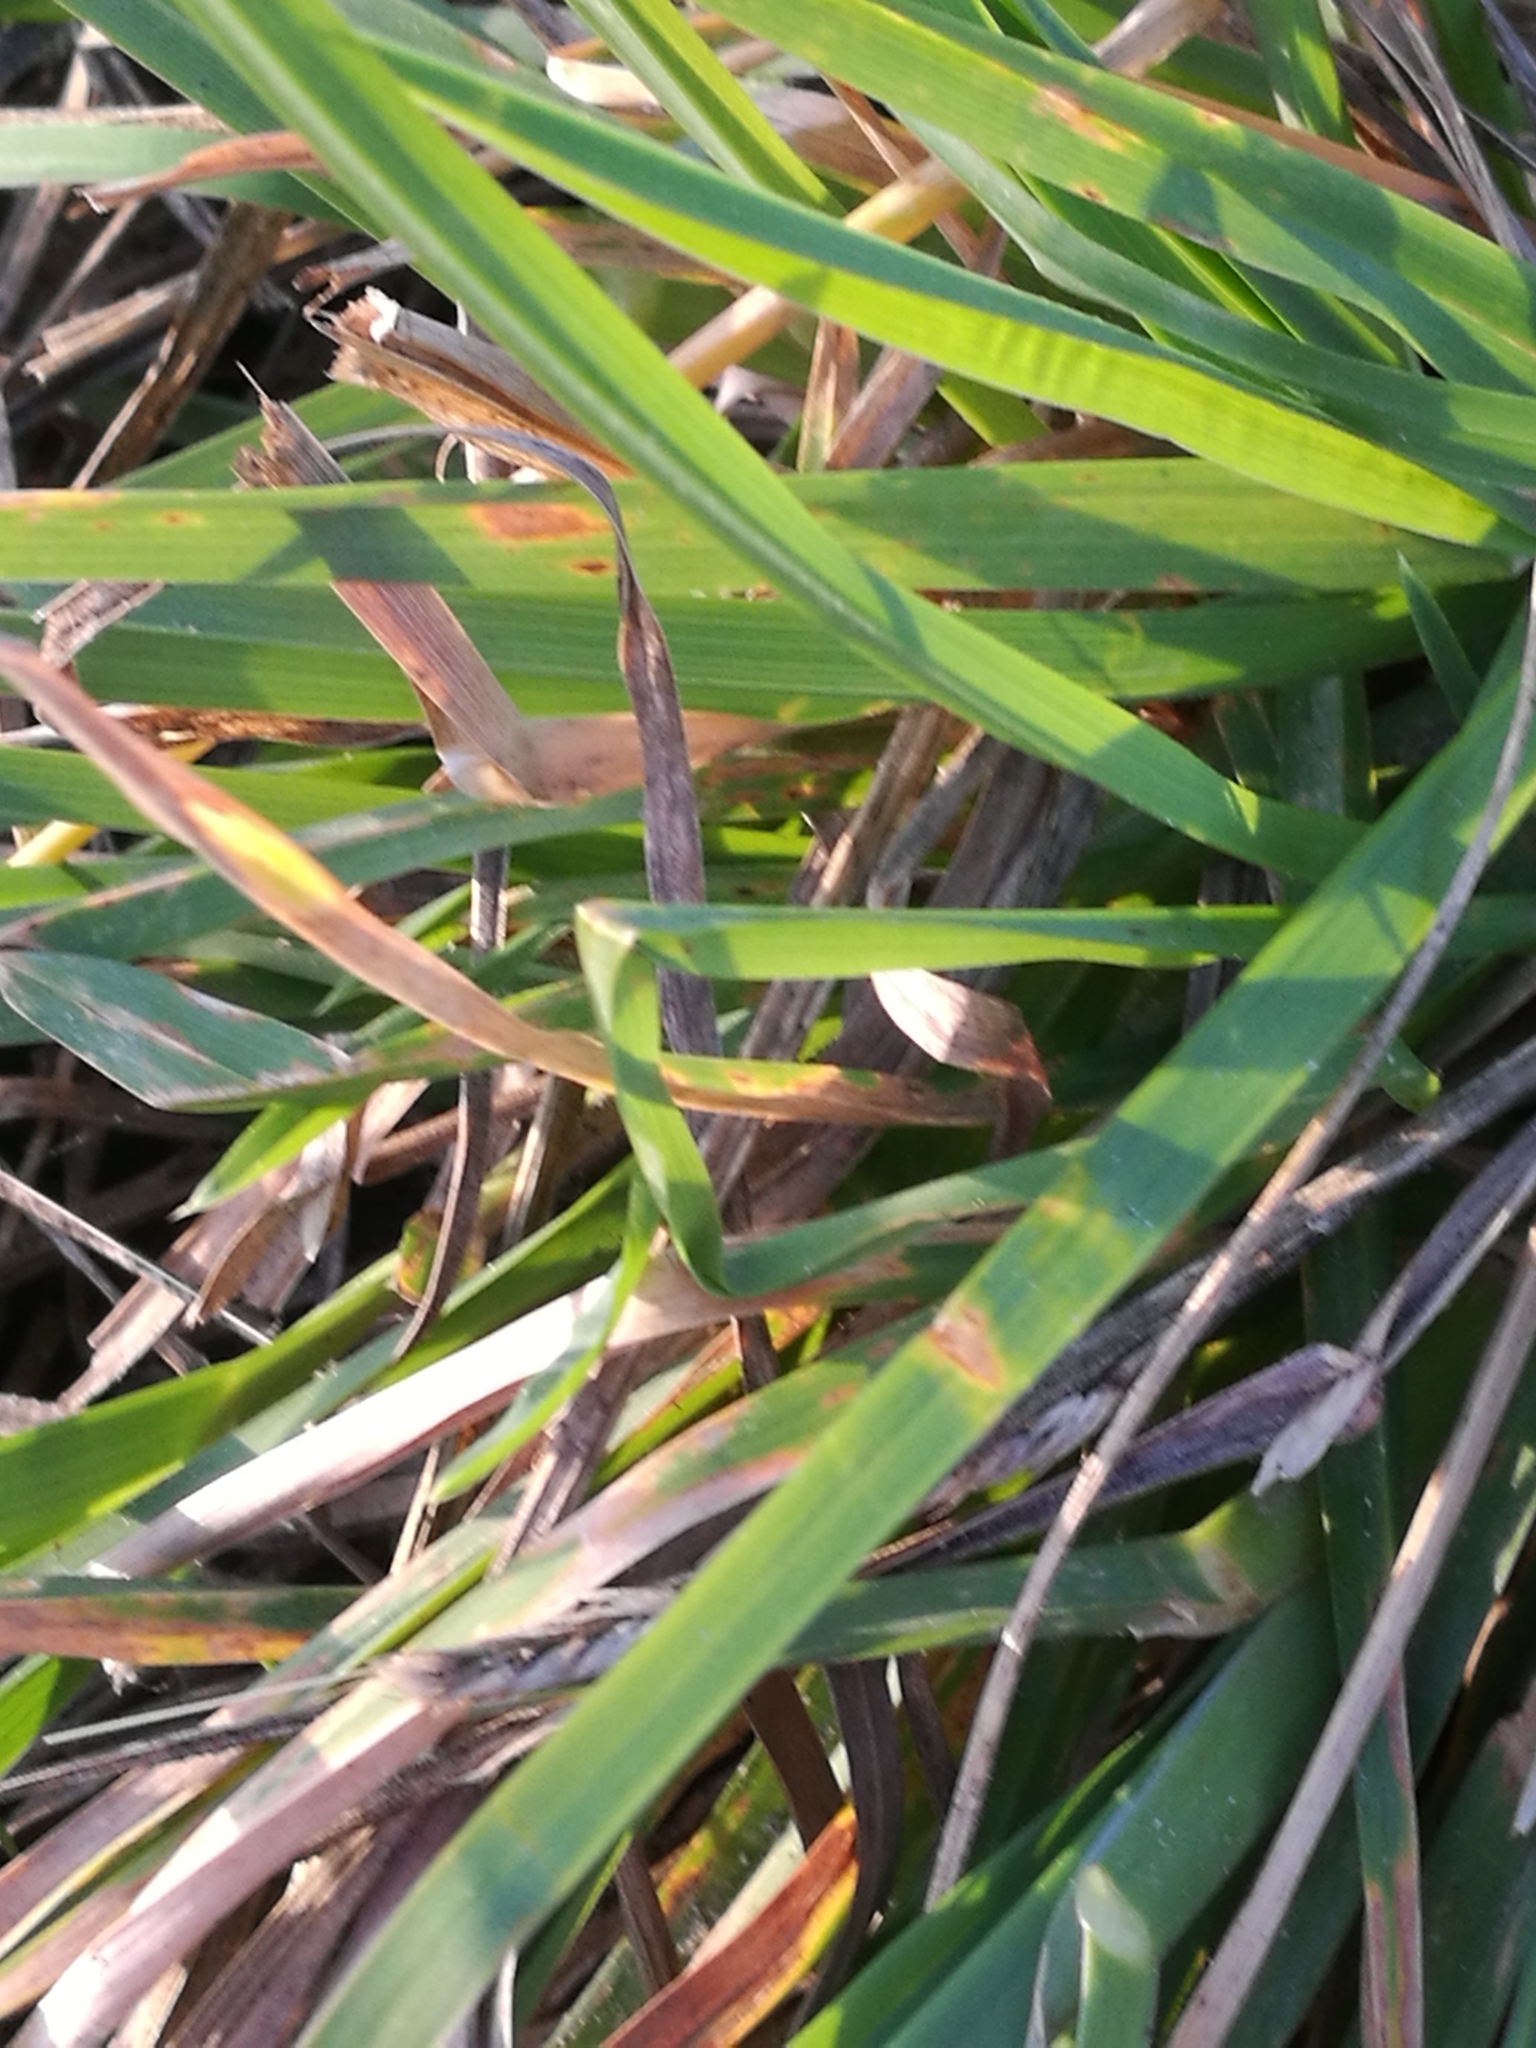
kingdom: Plantae
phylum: Tracheophyta
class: Liliopsida
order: Poales
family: Poaceae
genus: Dactylis
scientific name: Dactylis glomerata
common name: Orchardgrass
